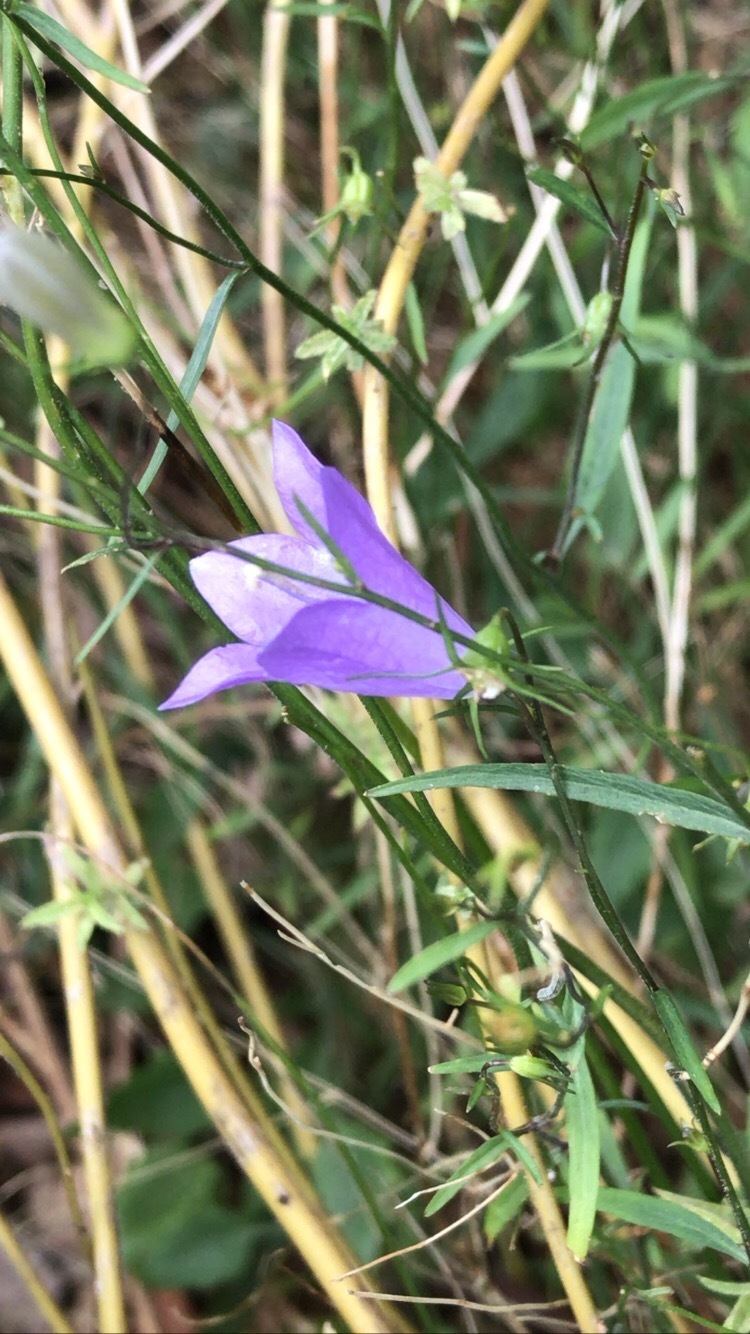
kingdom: Plantae
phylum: Tracheophyta
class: Magnoliopsida
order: Asterales
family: Campanulaceae
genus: Campanula
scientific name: Campanula intercedens
